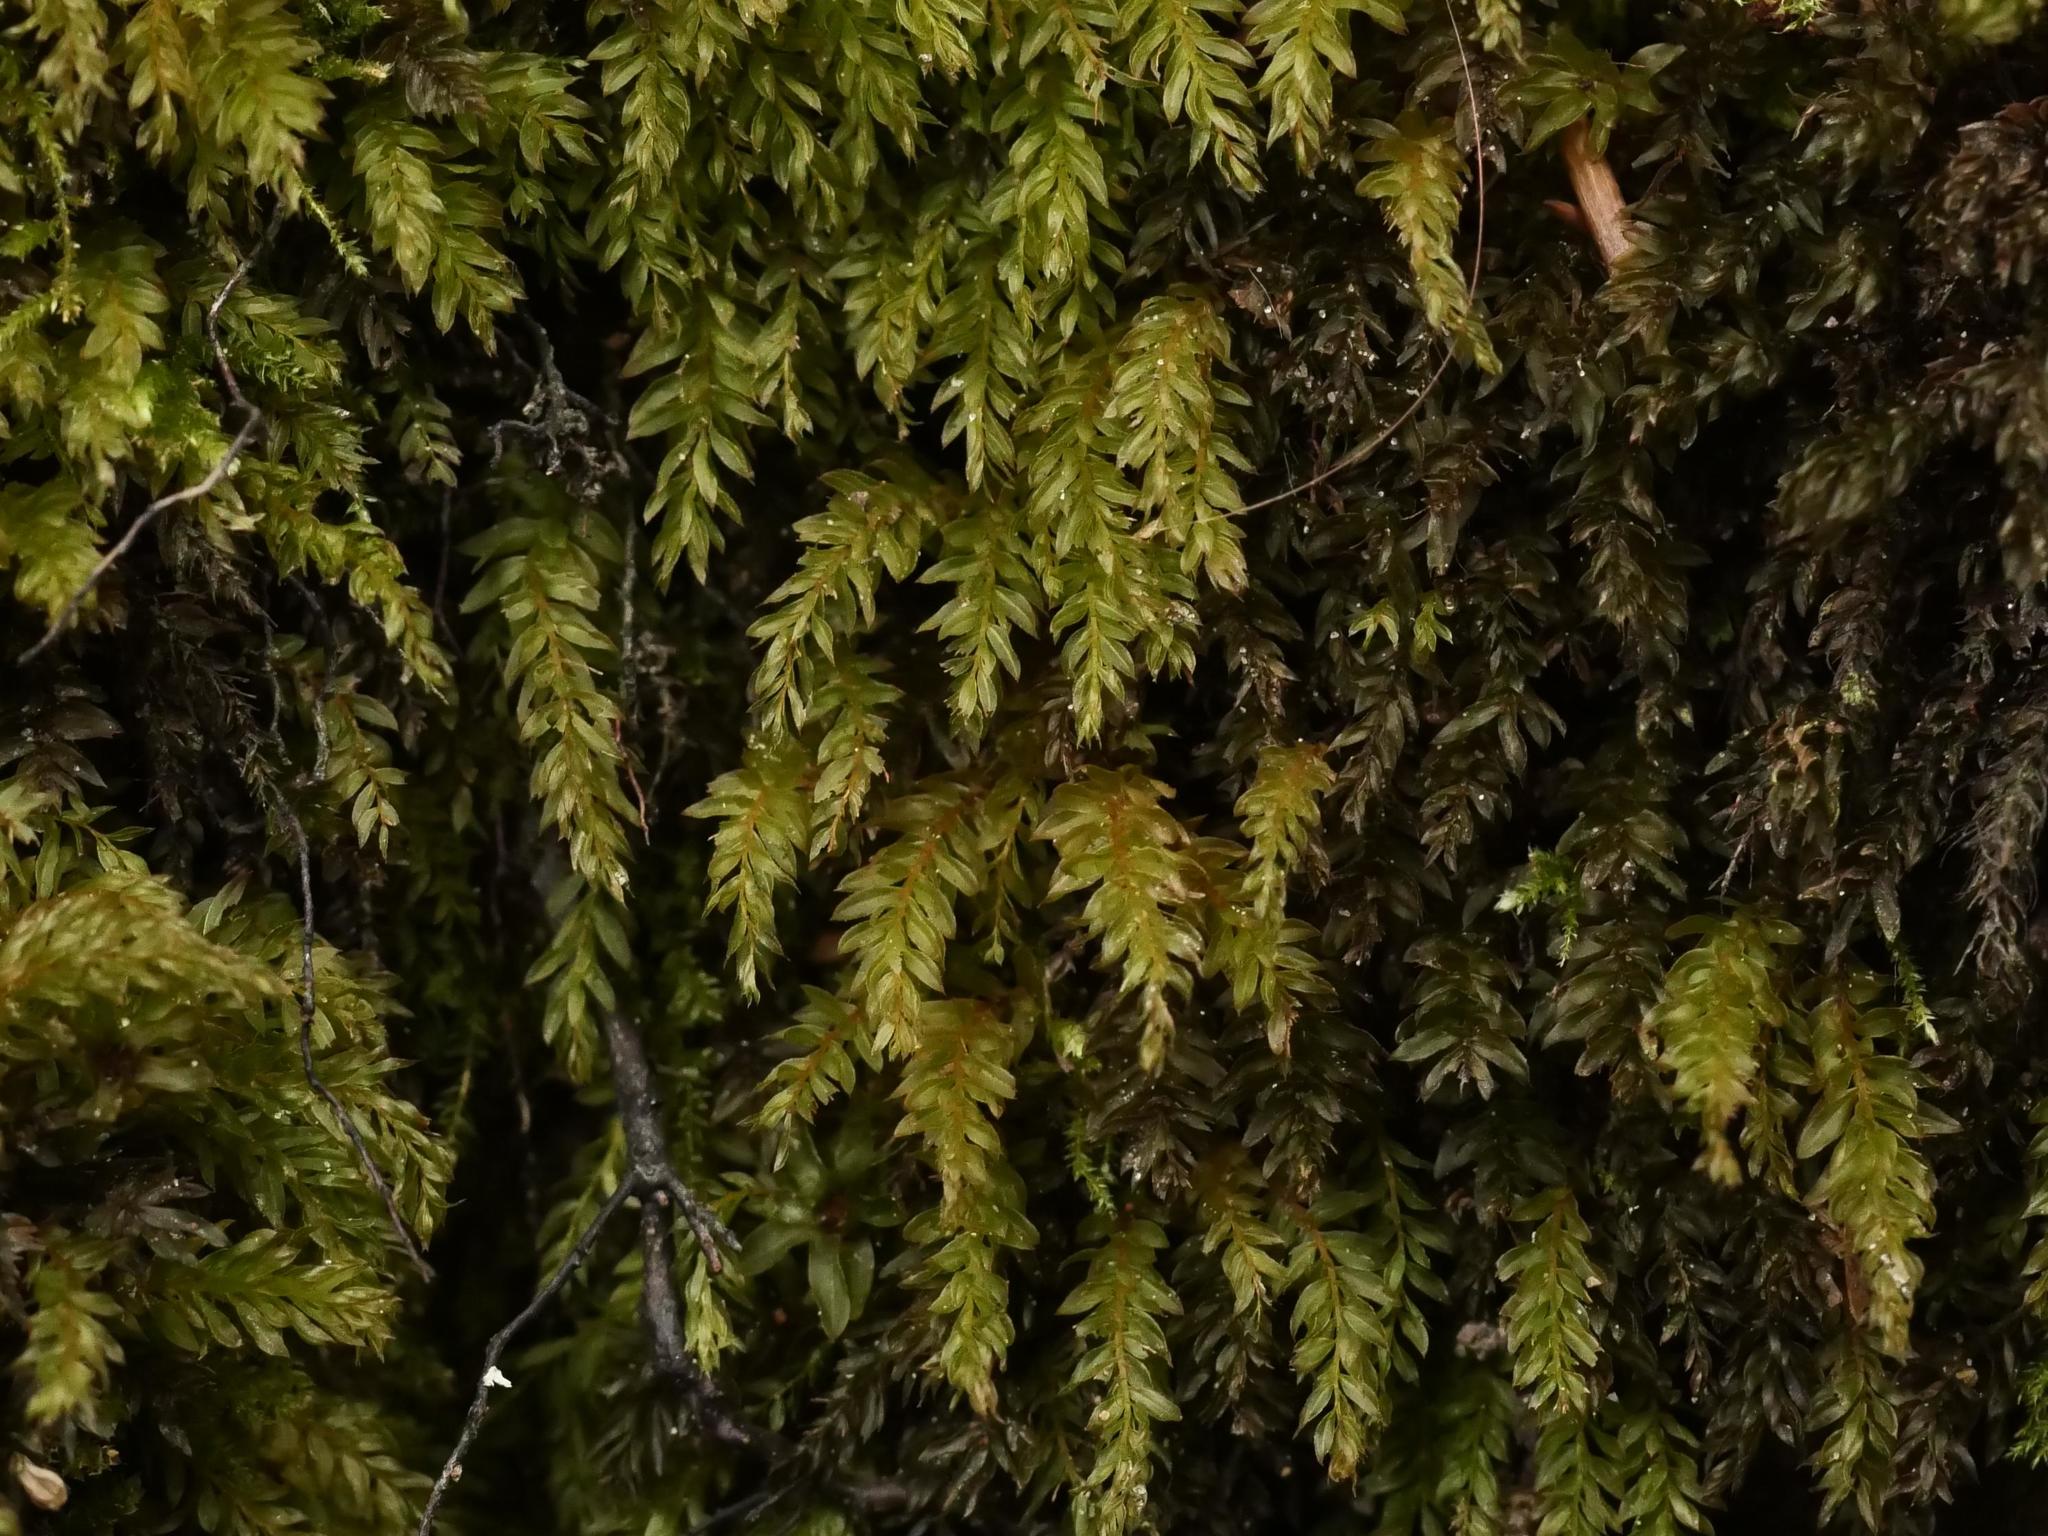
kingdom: Plantae
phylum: Bryophyta
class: Bryopsida
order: Bryales
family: Mniaceae
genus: Mnium
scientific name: Mnium hornum
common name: Swan's-neck leafy moss
